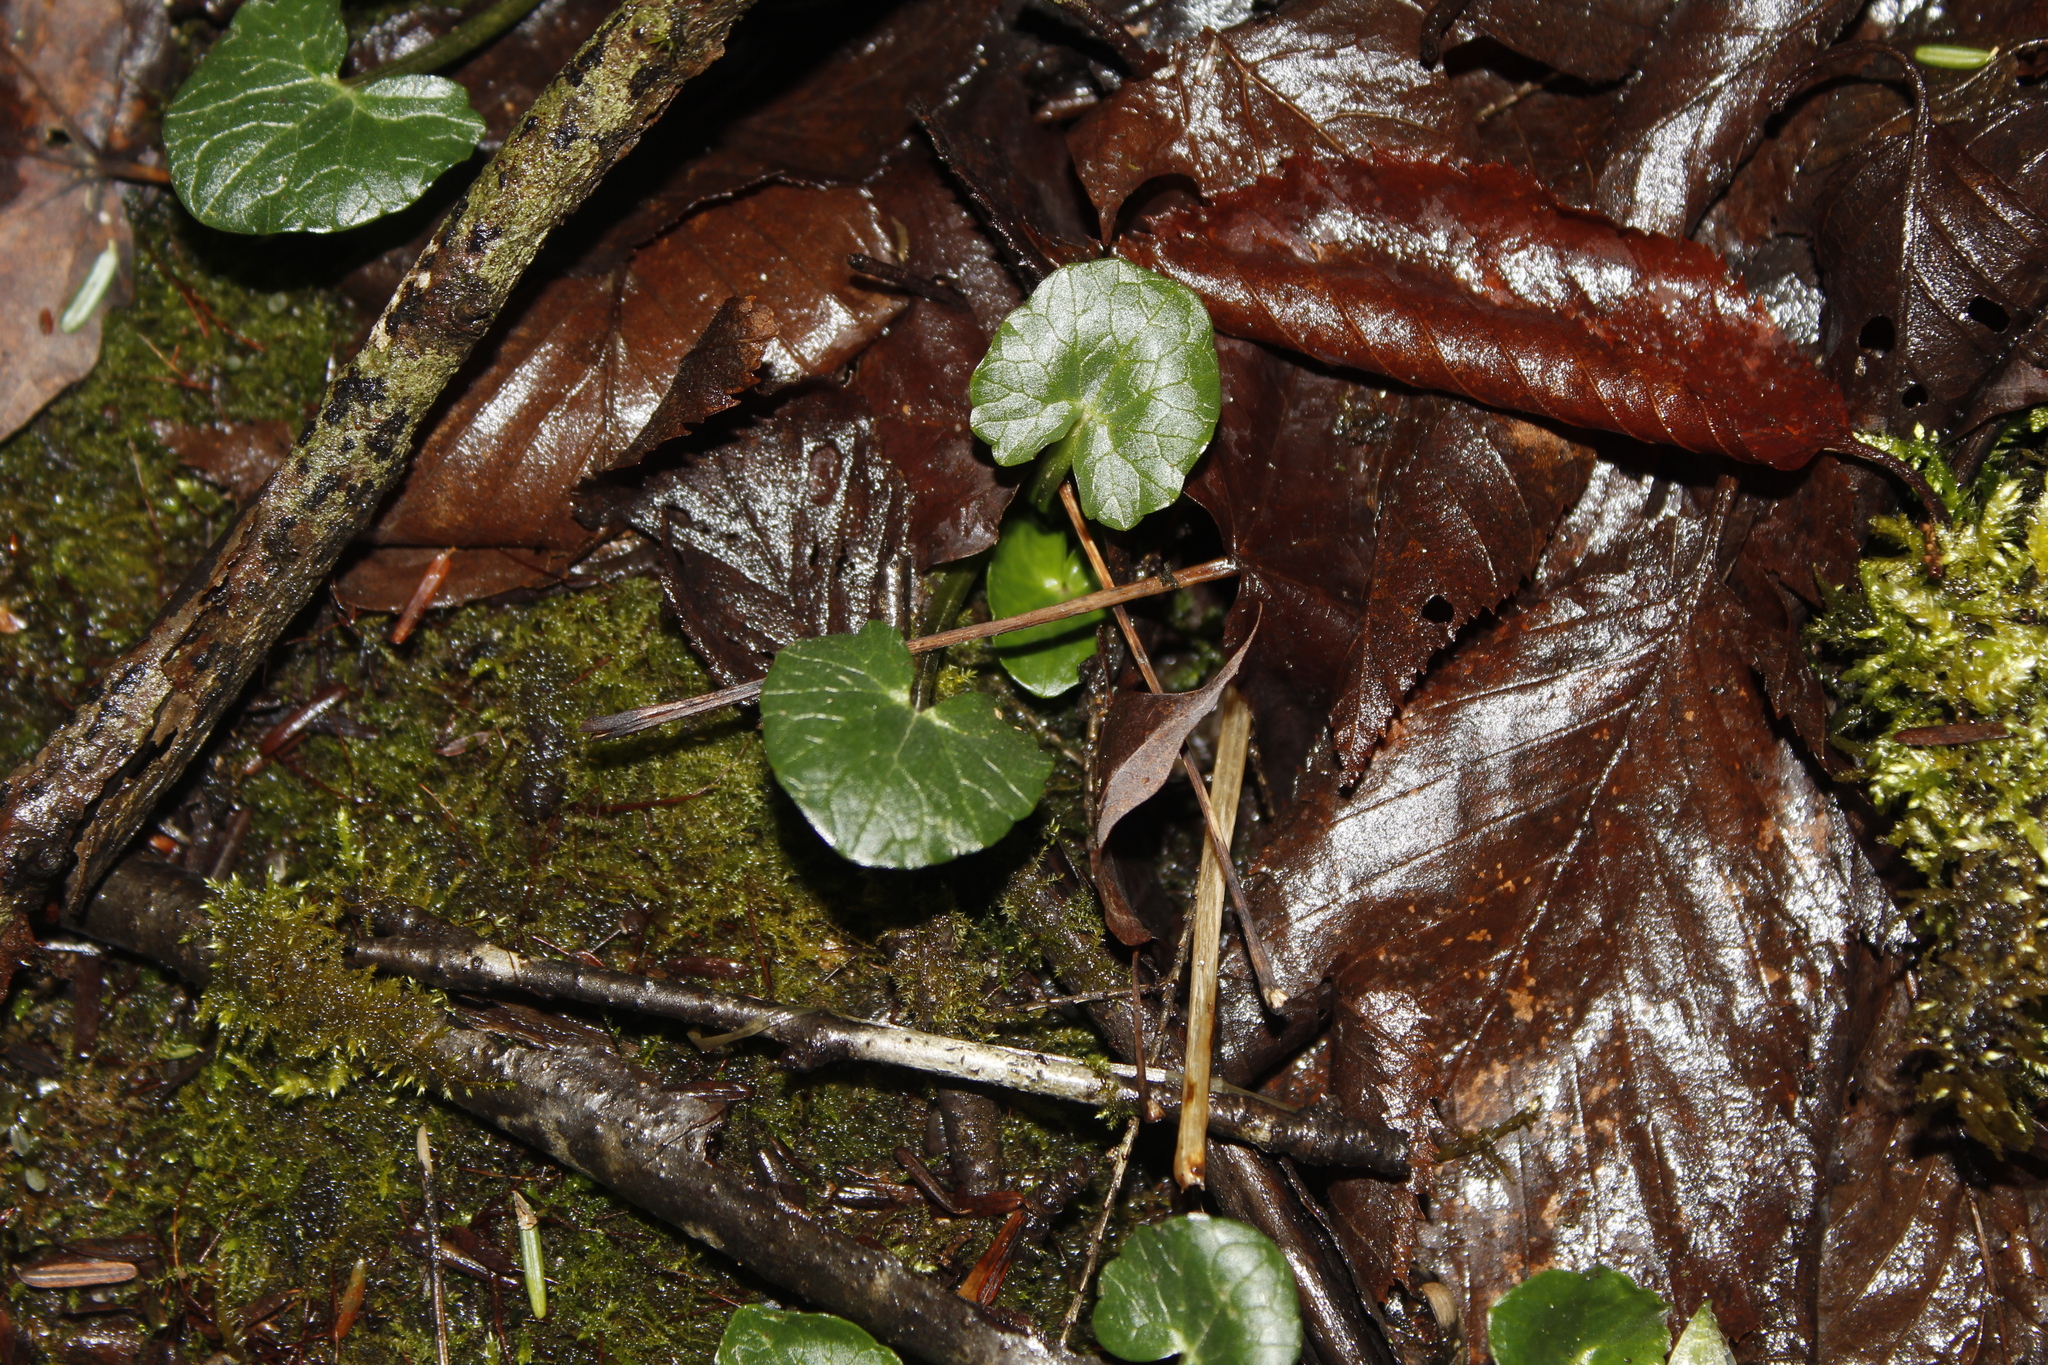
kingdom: Plantae
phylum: Tracheophyta
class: Magnoliopsida
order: Ranunculales
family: Ranunculaceae
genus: Ficaria
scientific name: Ficaria verna
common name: Lesser celandine
